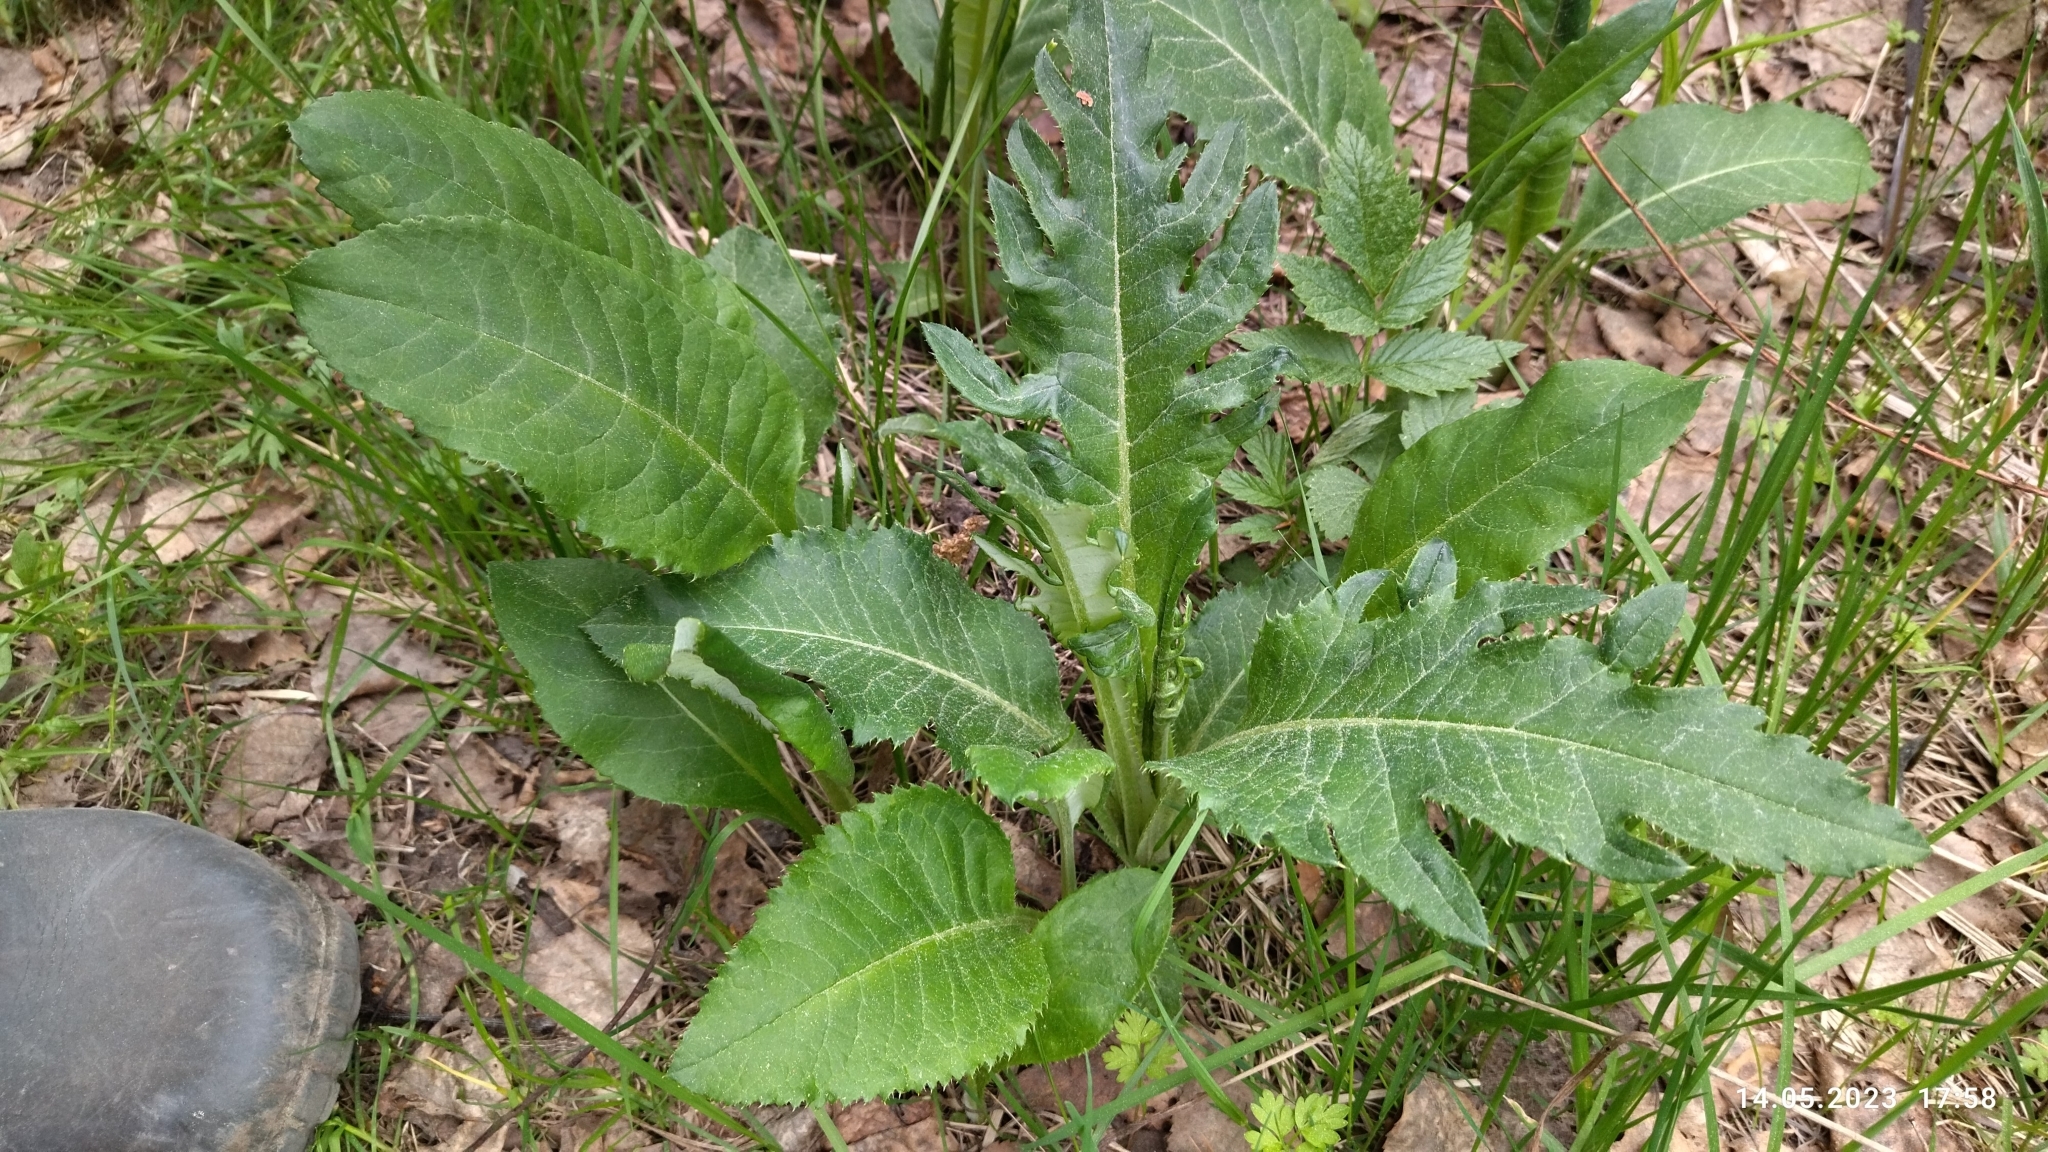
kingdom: Plantae
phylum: Tracheophyta
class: Magnoliopsida
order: Asterales
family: Asteraceae
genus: Cirsium
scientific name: Cirsium heterophyllum
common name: Melancholy thistle
